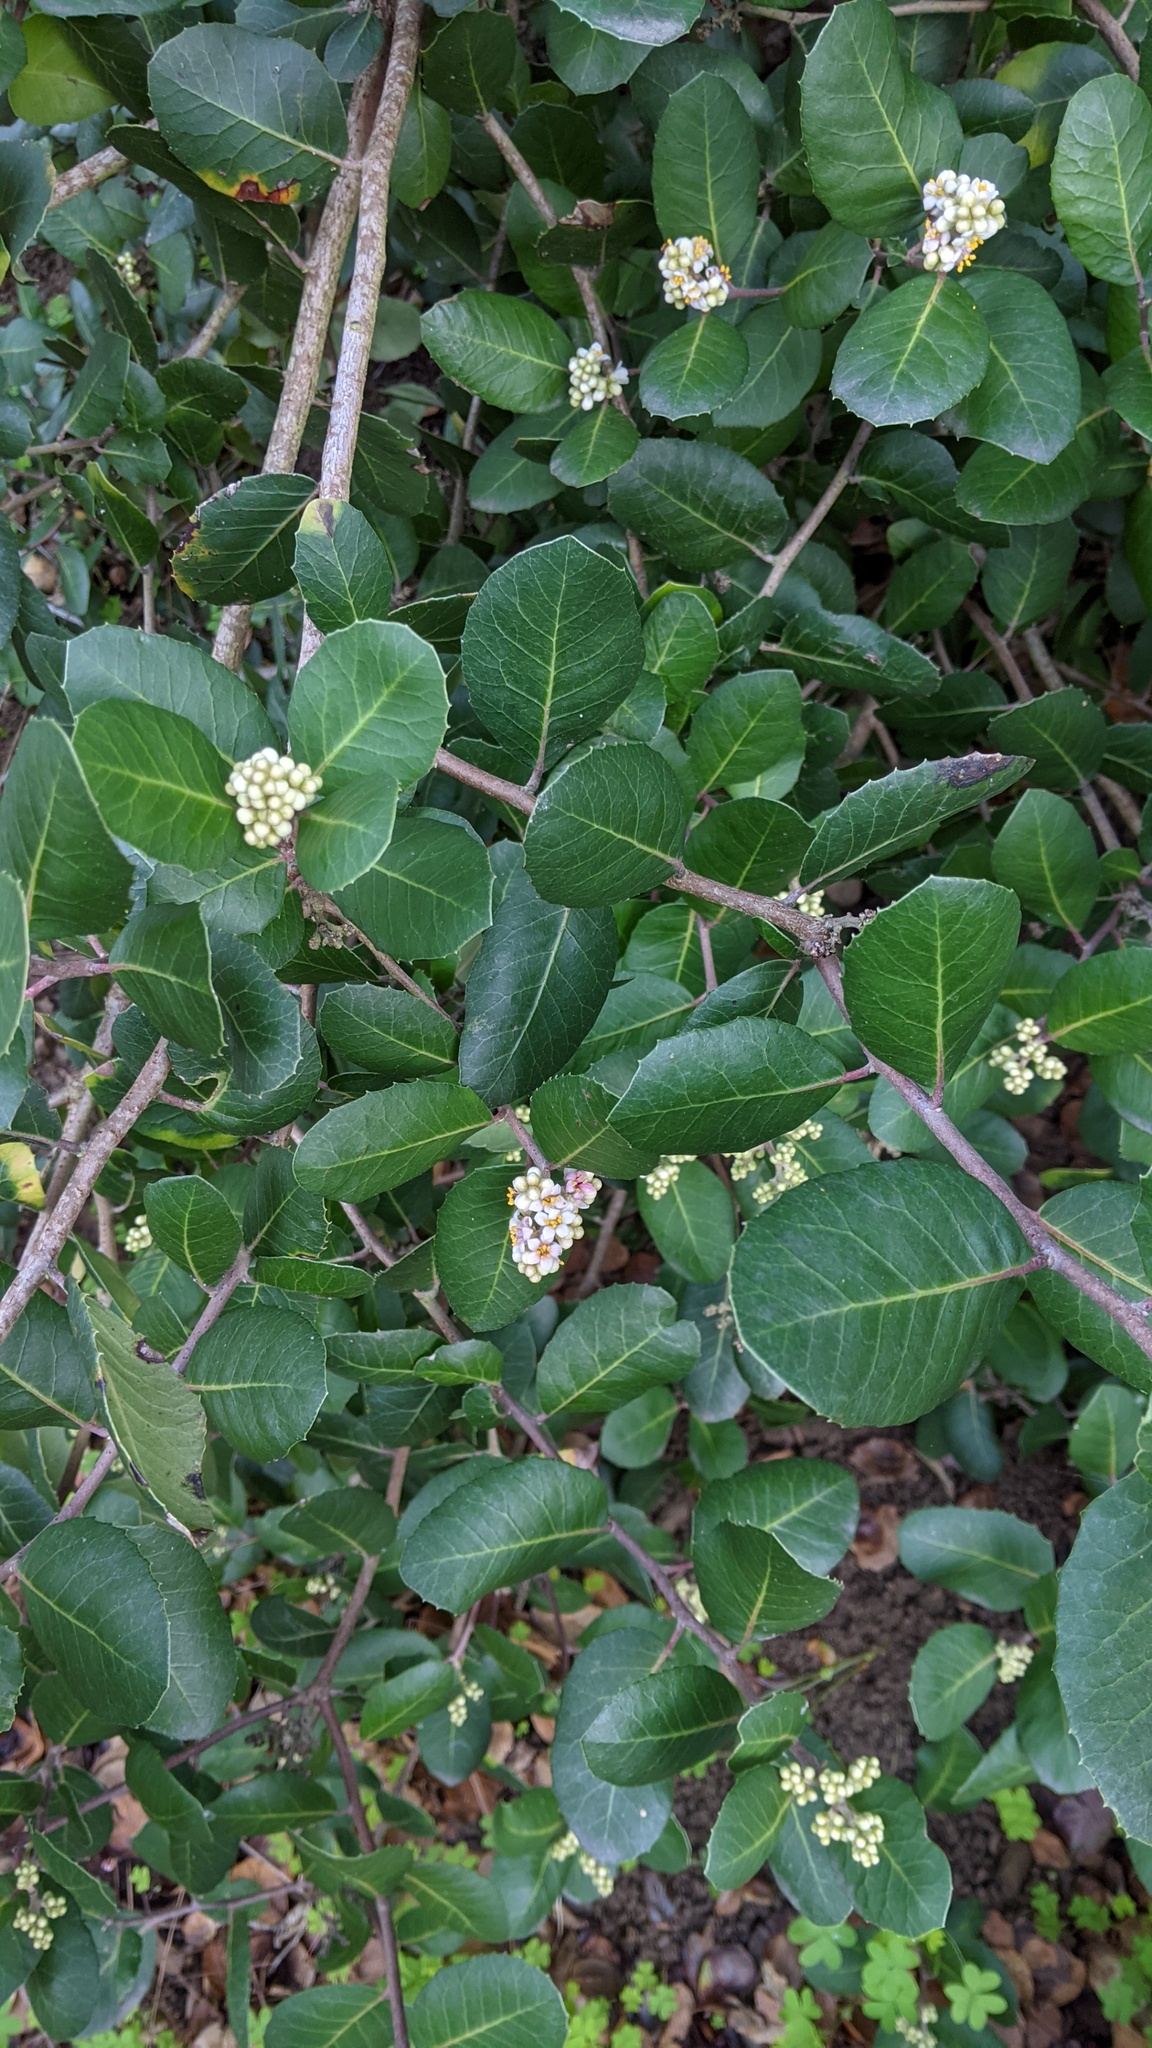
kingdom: Plantae
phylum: Tracheophyta
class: Magnoliopsida
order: Sapindales
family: Anacardiaceae
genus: Rhus
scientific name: Rhus integrifolia
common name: Lemonade sumac
